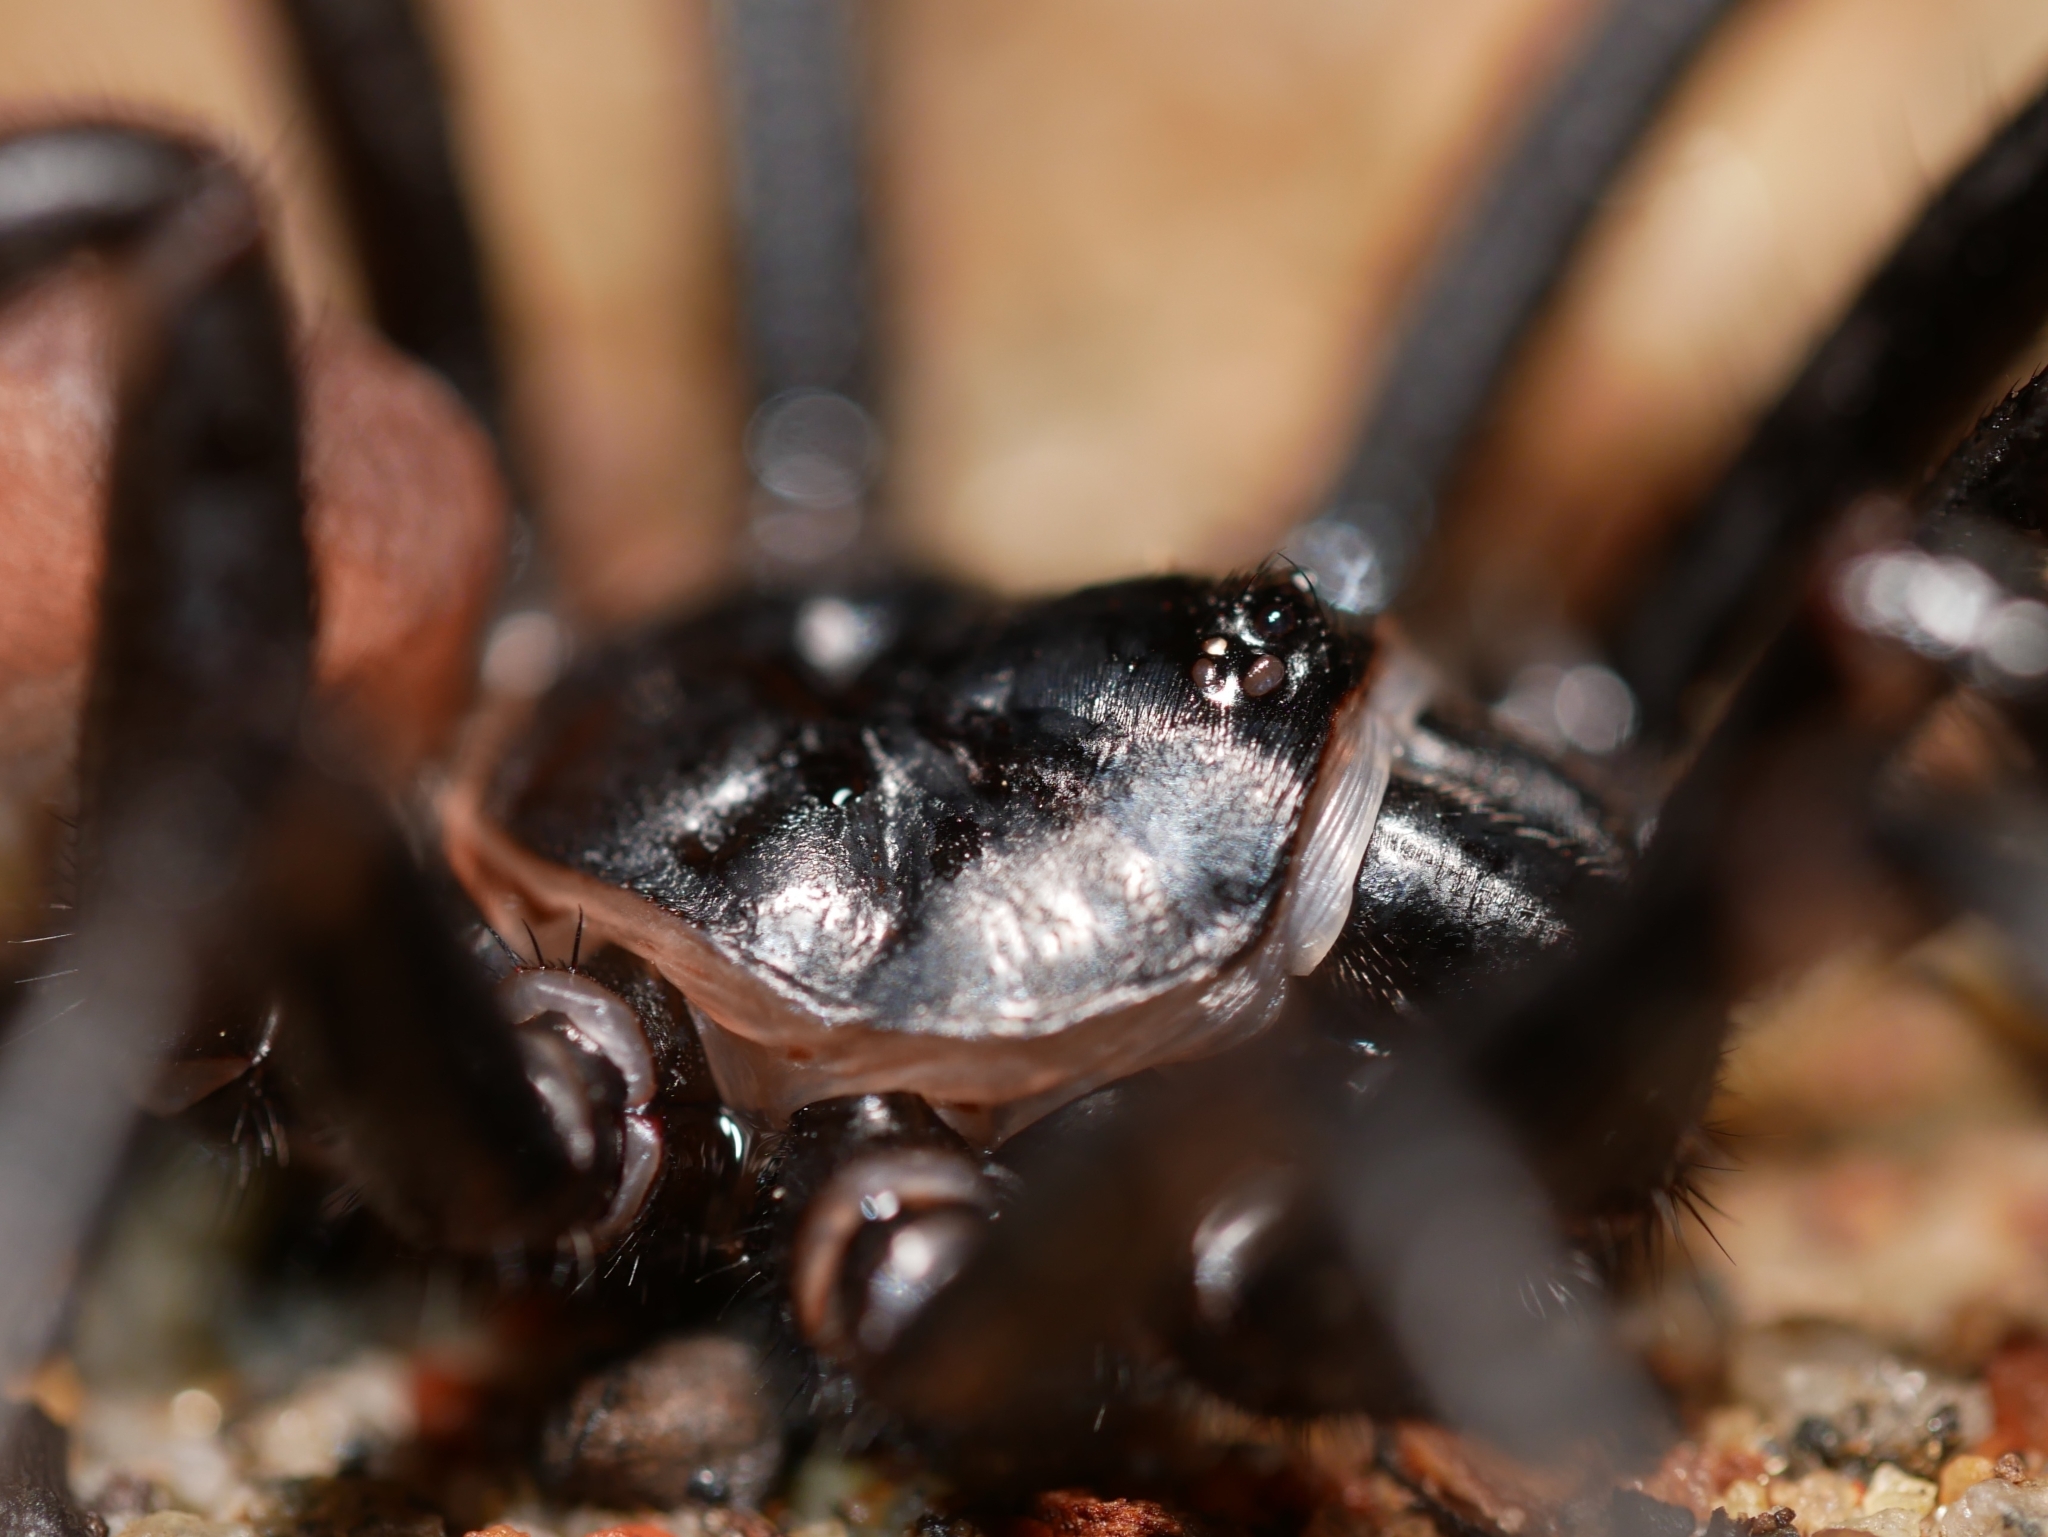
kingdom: Animalia
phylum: Arthropoda
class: Arachnida
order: Araneae
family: Halonoproctidae
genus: Bothriocyrtum
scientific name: Bothriocyrtum californicum
